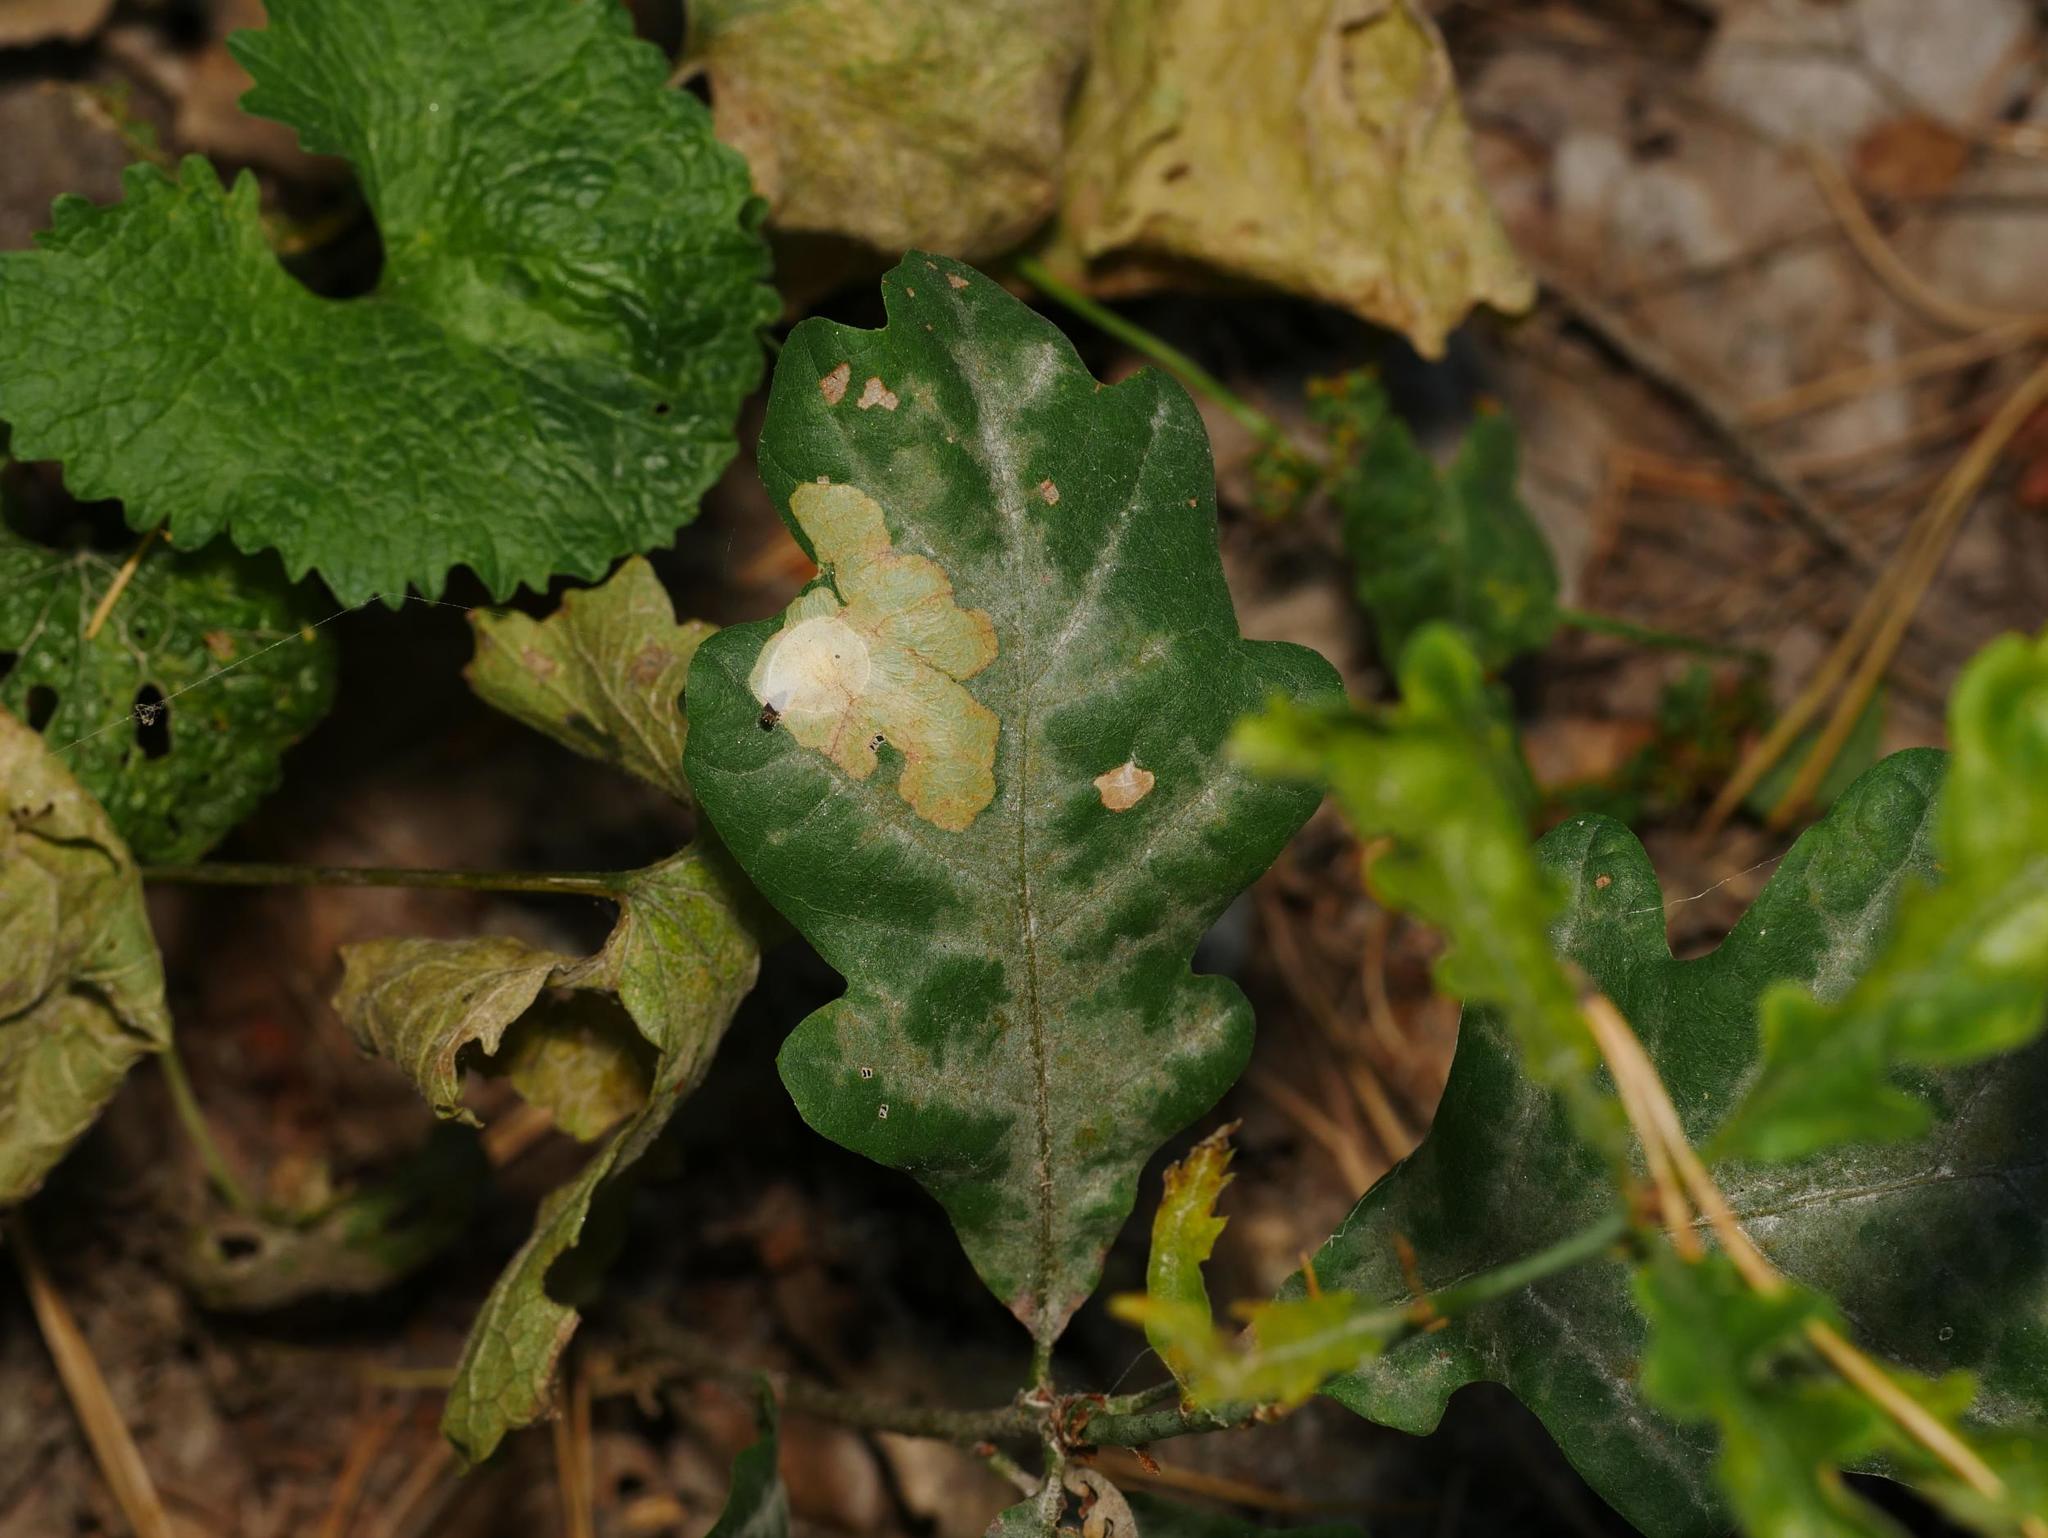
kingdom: Plantae
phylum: Tracheophyta
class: Magnoliopsida
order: Fagales
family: Fagaceae
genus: Quercus
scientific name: Quercus robur
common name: Pedunculate oak
